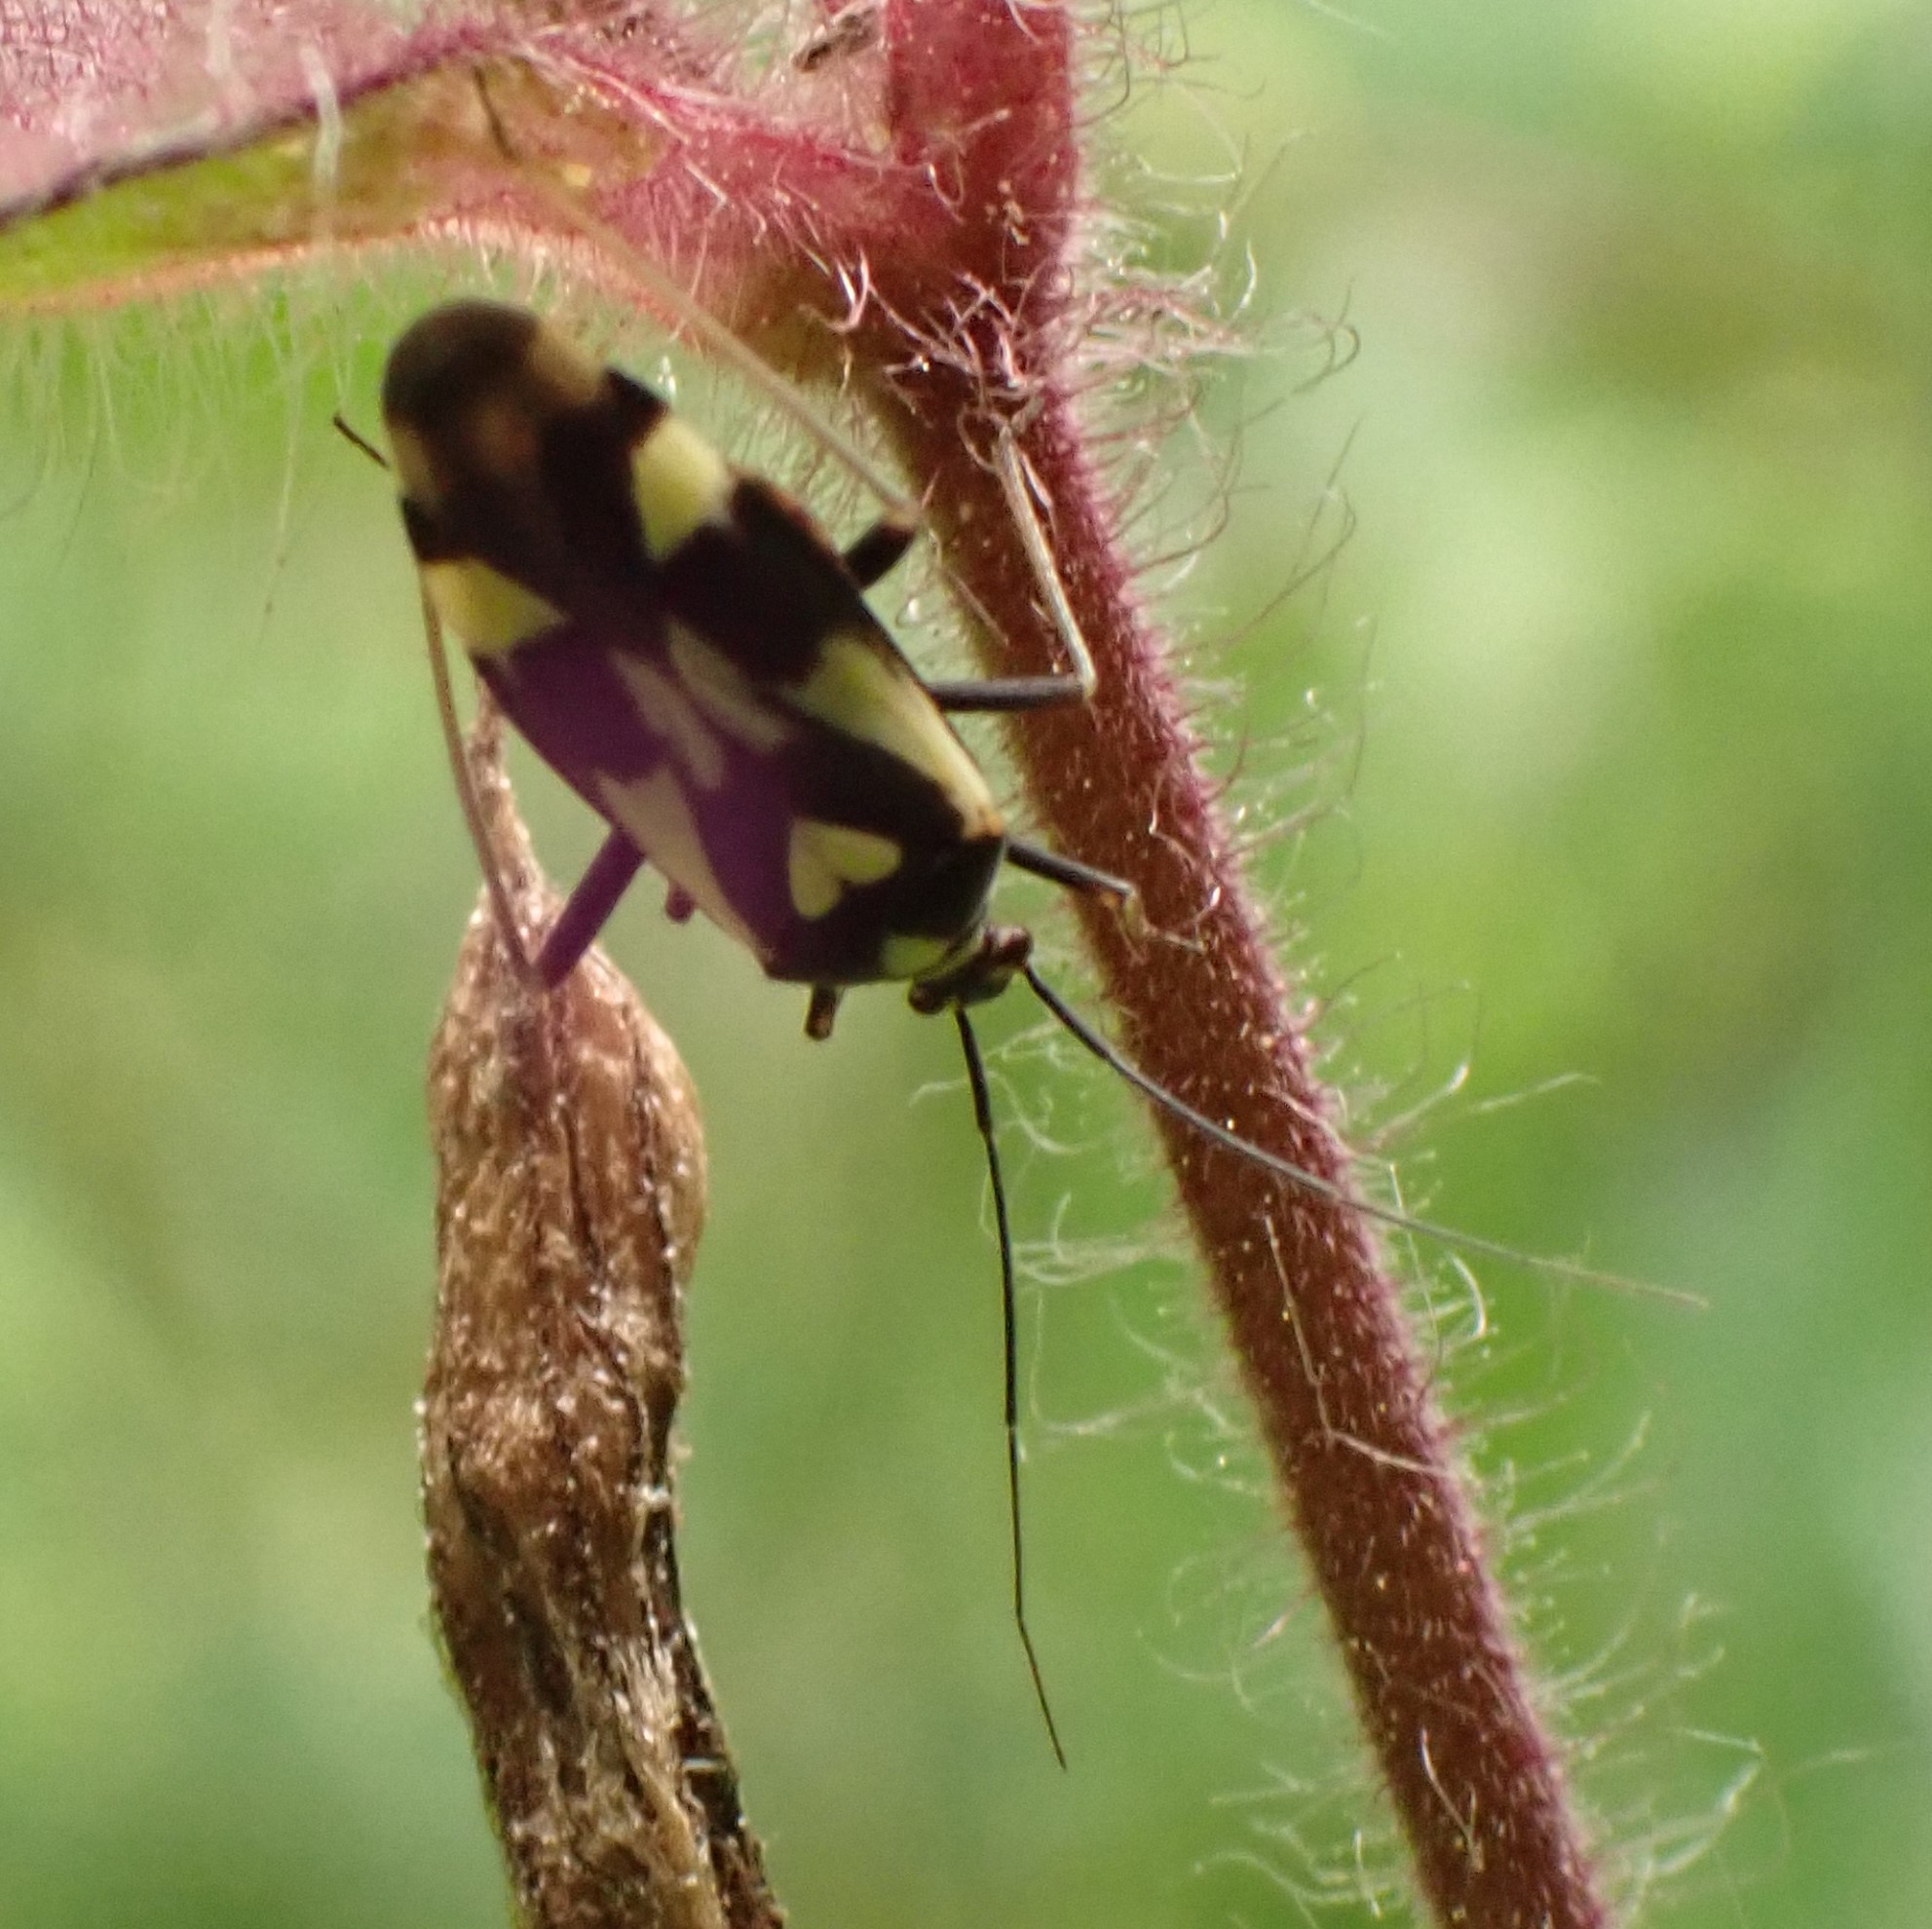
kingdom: Animalia
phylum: Arthropoda
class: Insecta
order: Hemiptera
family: Miridae
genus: Grypocoris
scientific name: Grypocoris sexguttatus
